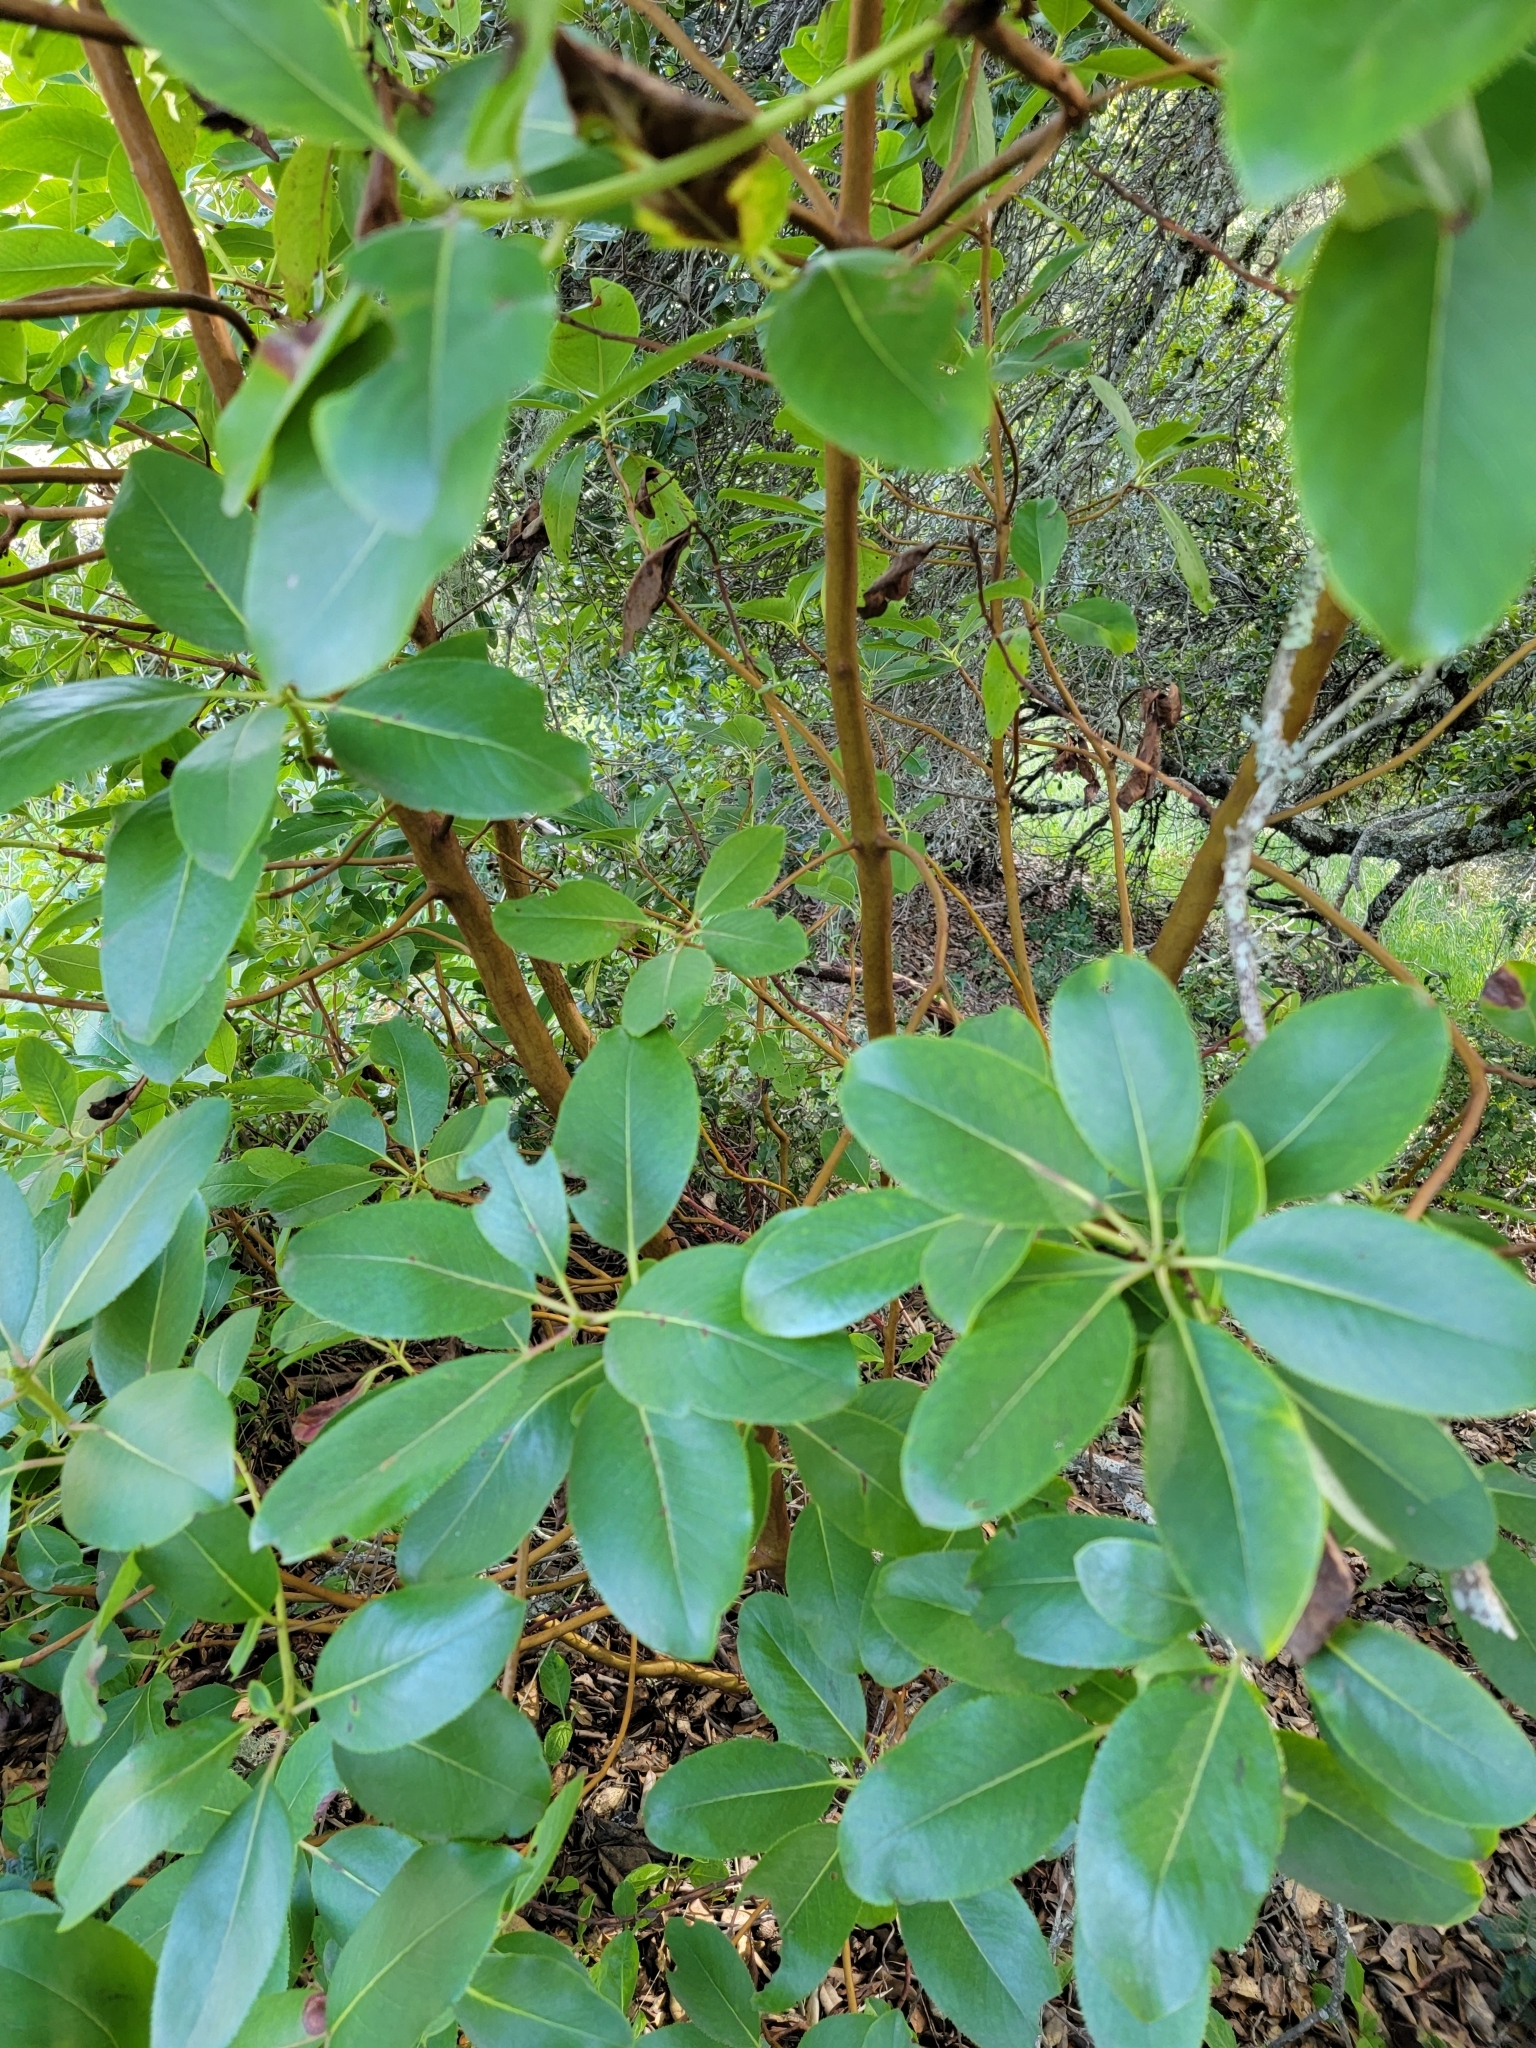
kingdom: Plantae
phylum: Tracheophyta
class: Magnoliopsida
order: Ericales
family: Ericaceae
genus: Arbutus
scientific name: Arbutus menziesii
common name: Pacific madrone
